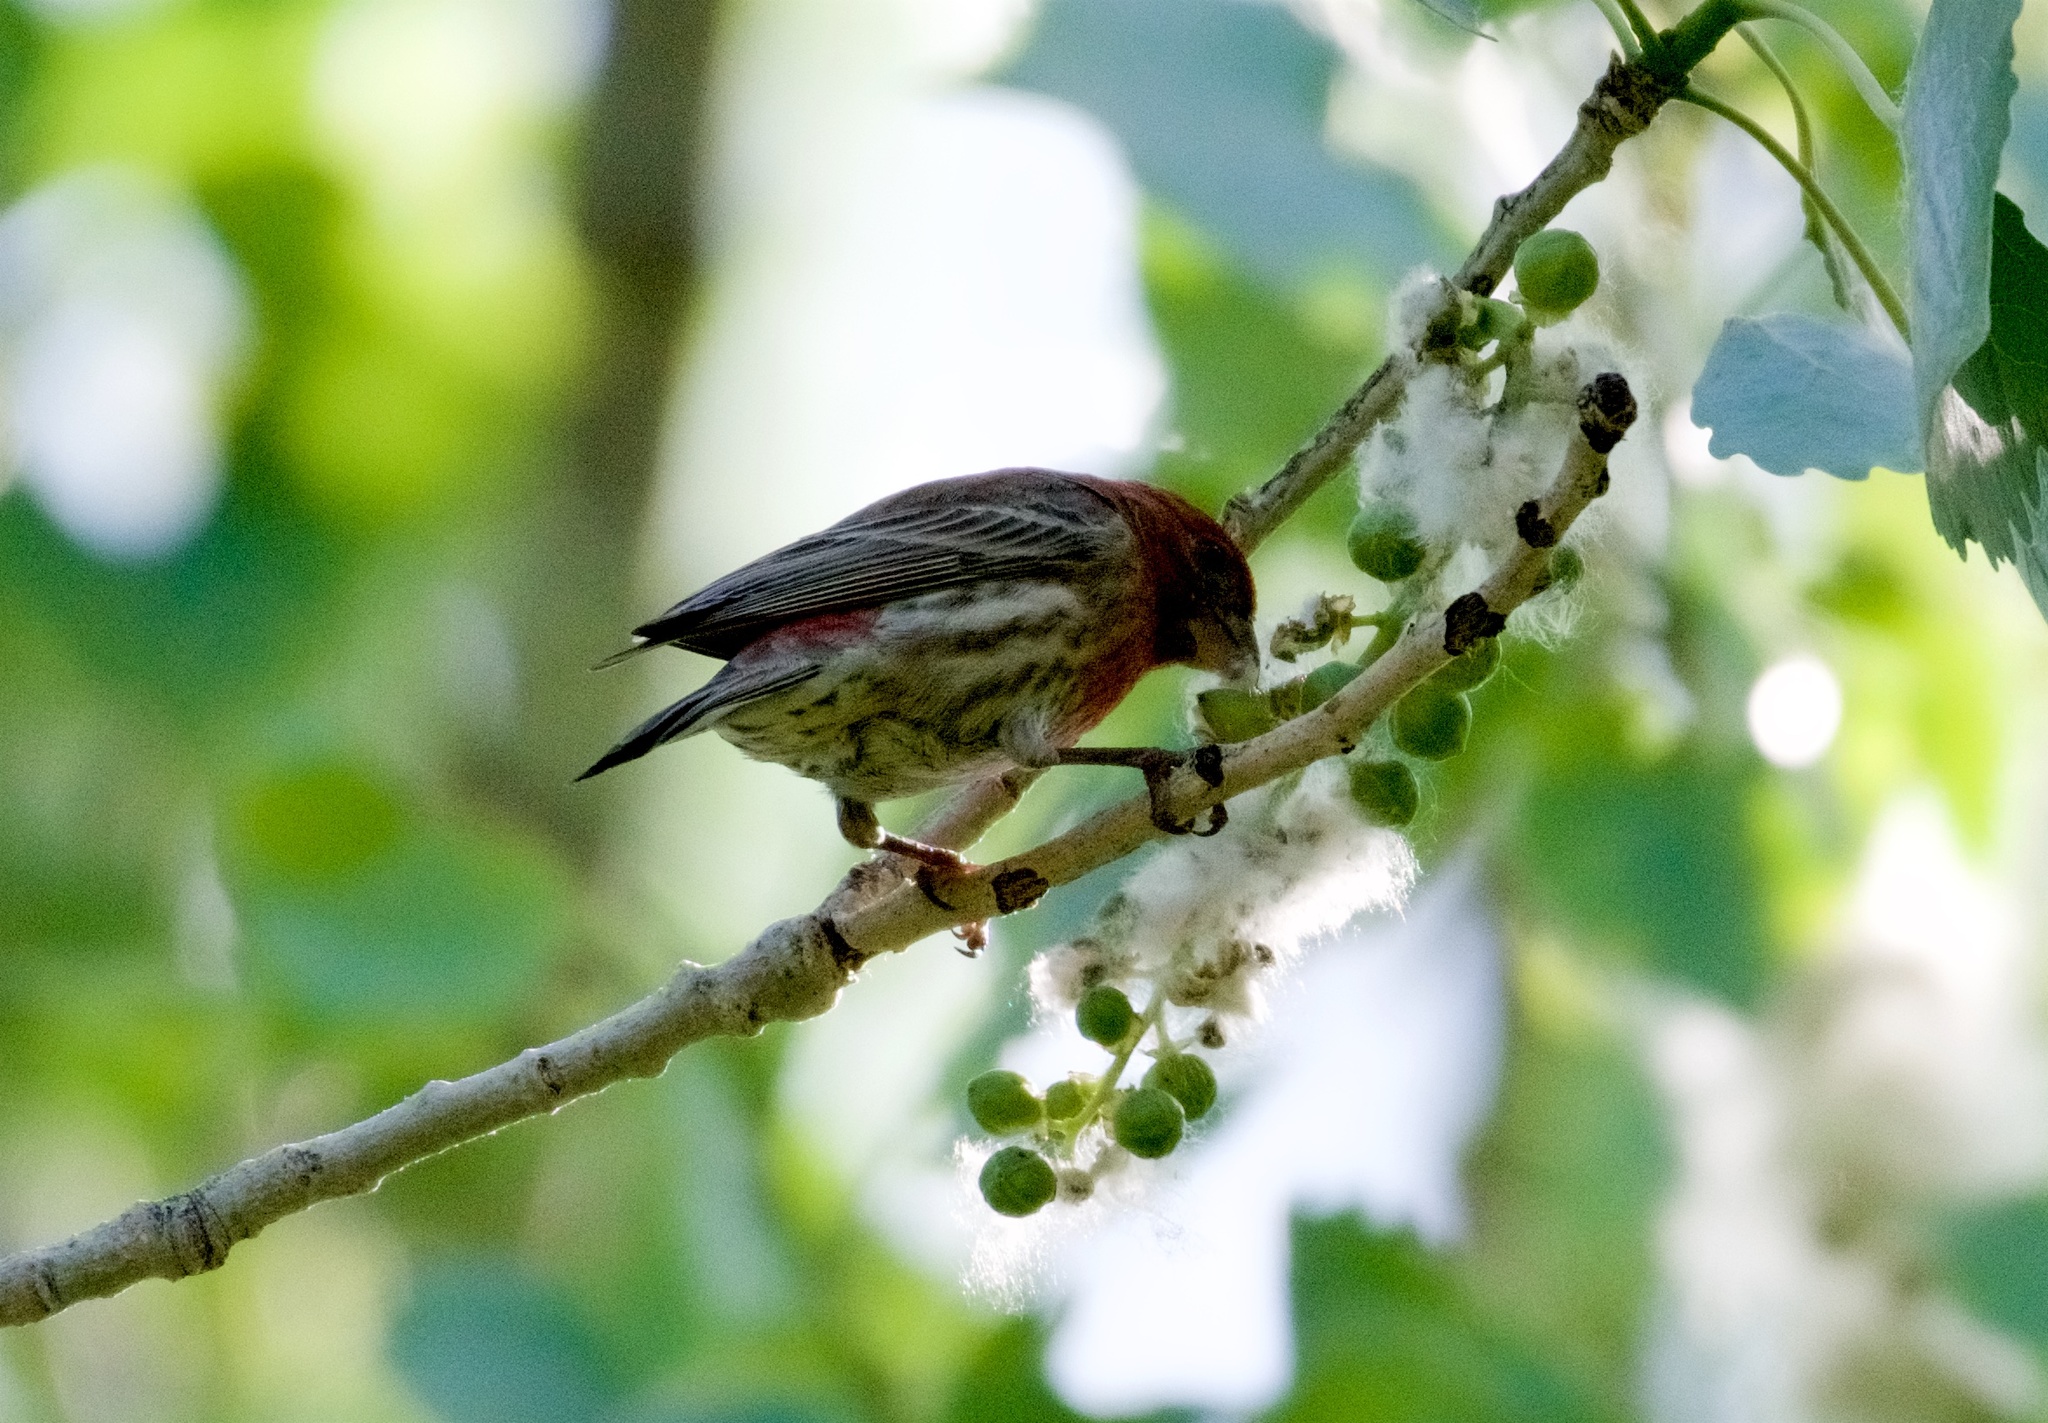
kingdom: Animalia
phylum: Chordata
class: Aves
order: Passeriformes
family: Fringillidae
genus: Haemorhous
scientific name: Haemorhous mexicanus
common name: House finch
